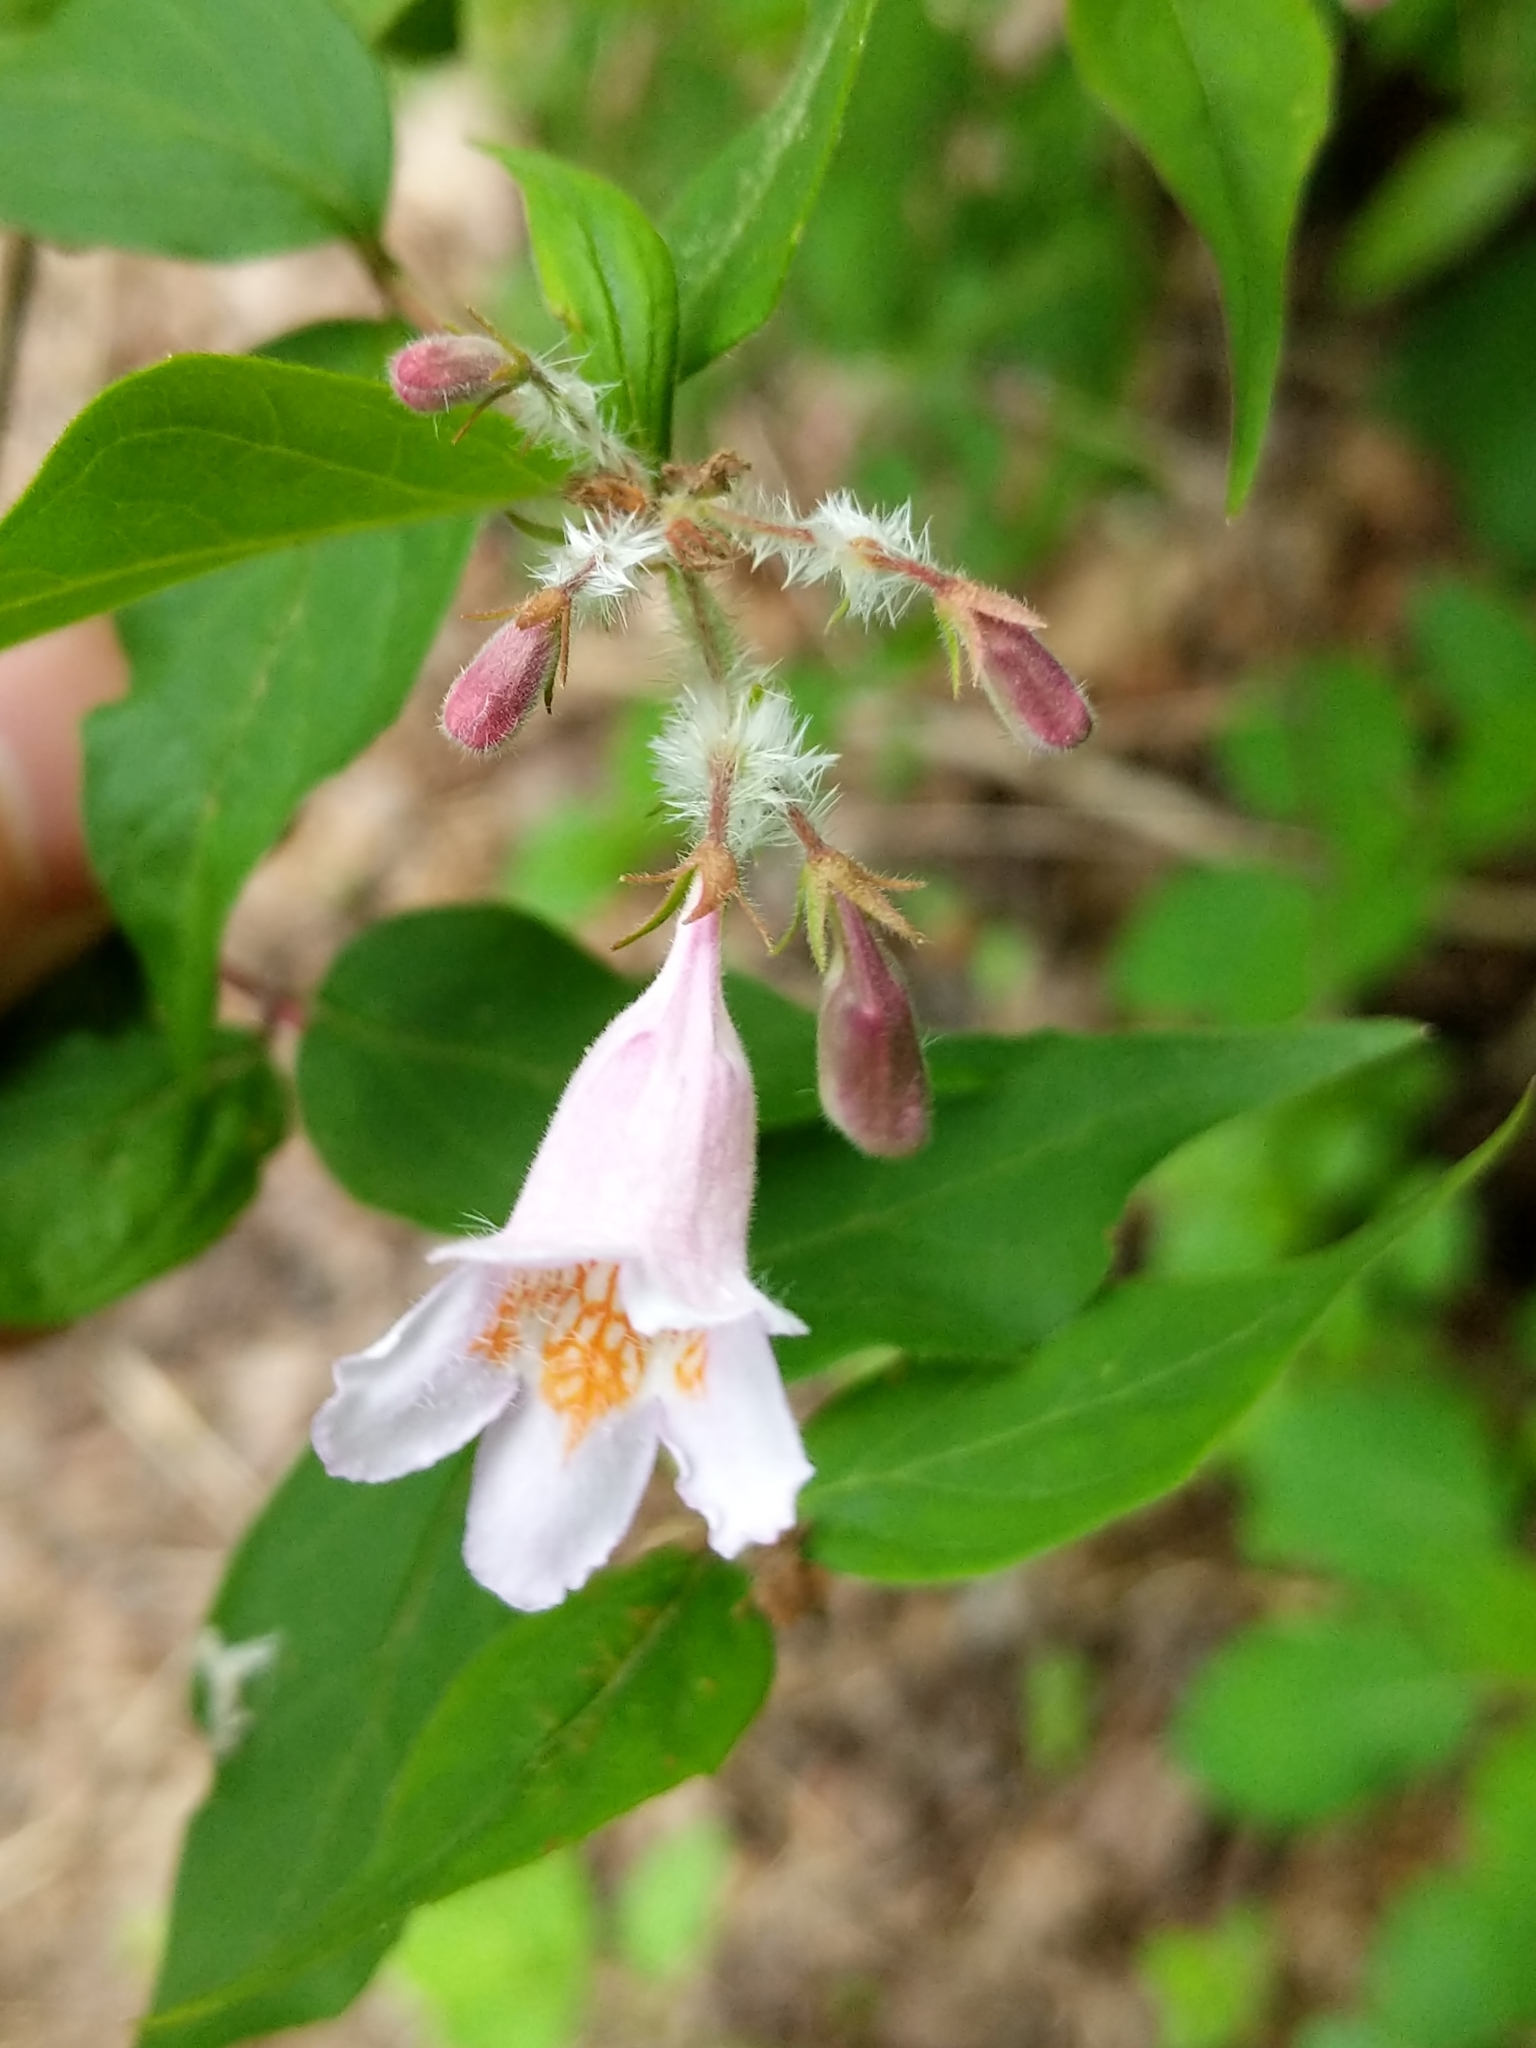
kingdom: Plantae
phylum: Tracheophyta
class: Magnoliopsida
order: Dipsacales
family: Caprifoliaceae
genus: Kolkwitzia
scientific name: Kolkwitzia amabilis
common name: Beautybush
